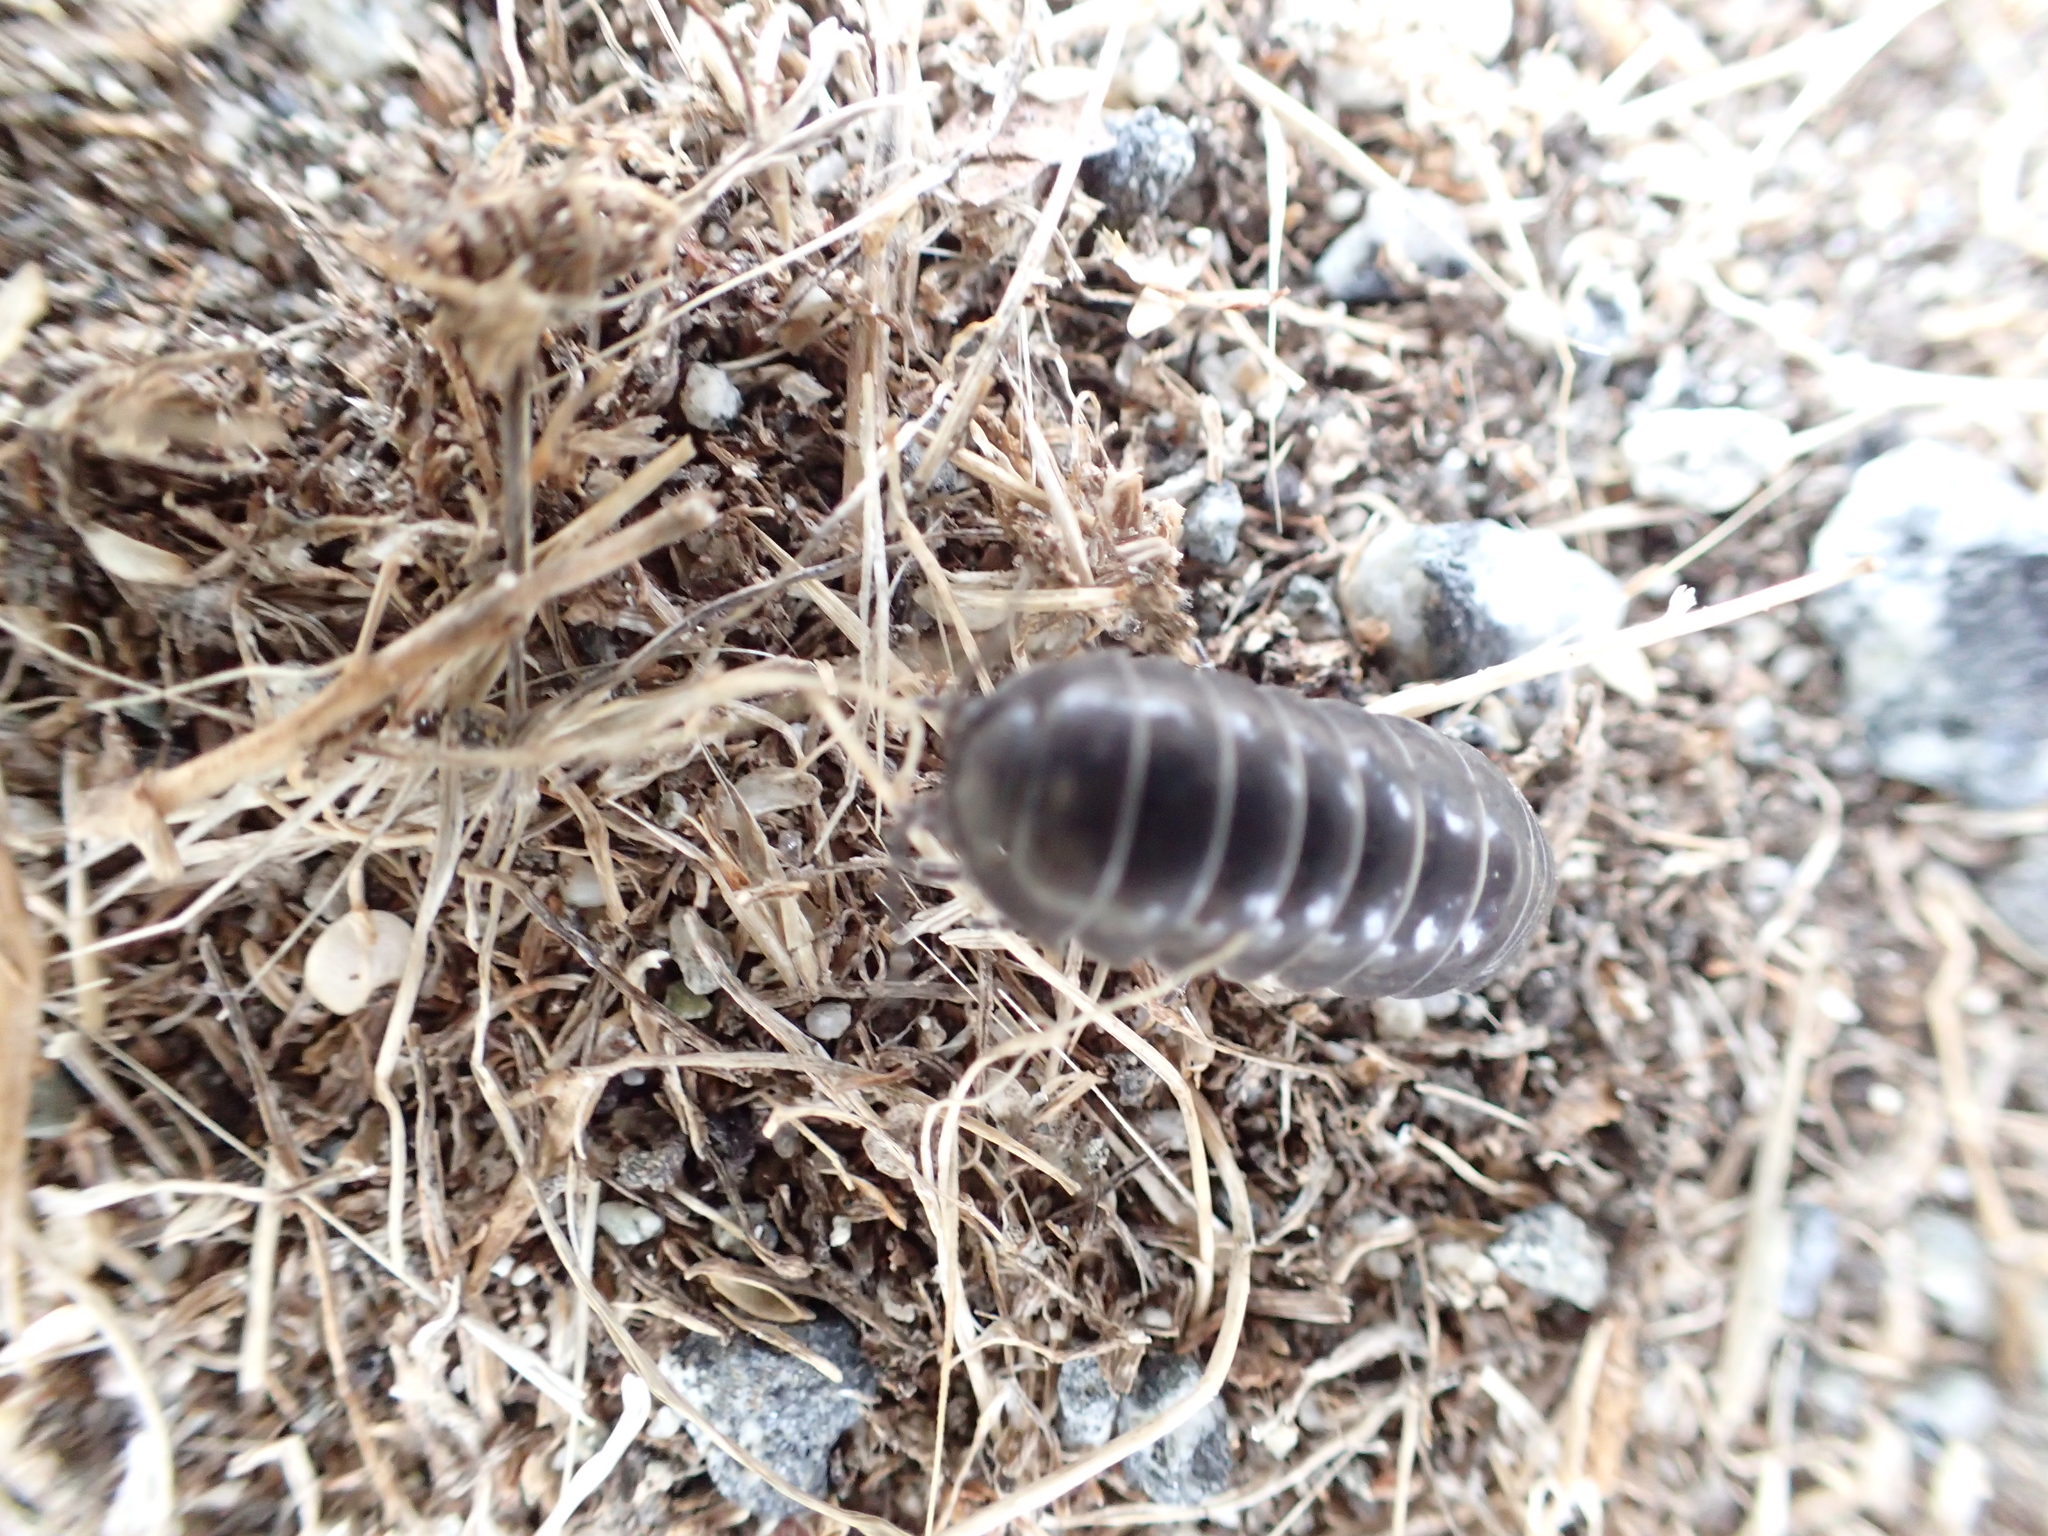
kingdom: Animalia
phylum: Arthropoda
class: Malacostraca
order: Isopoda
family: Armadillidiidae
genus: Armadillidium
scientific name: Armadillidium vulgare
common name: Common pill woodlouse
